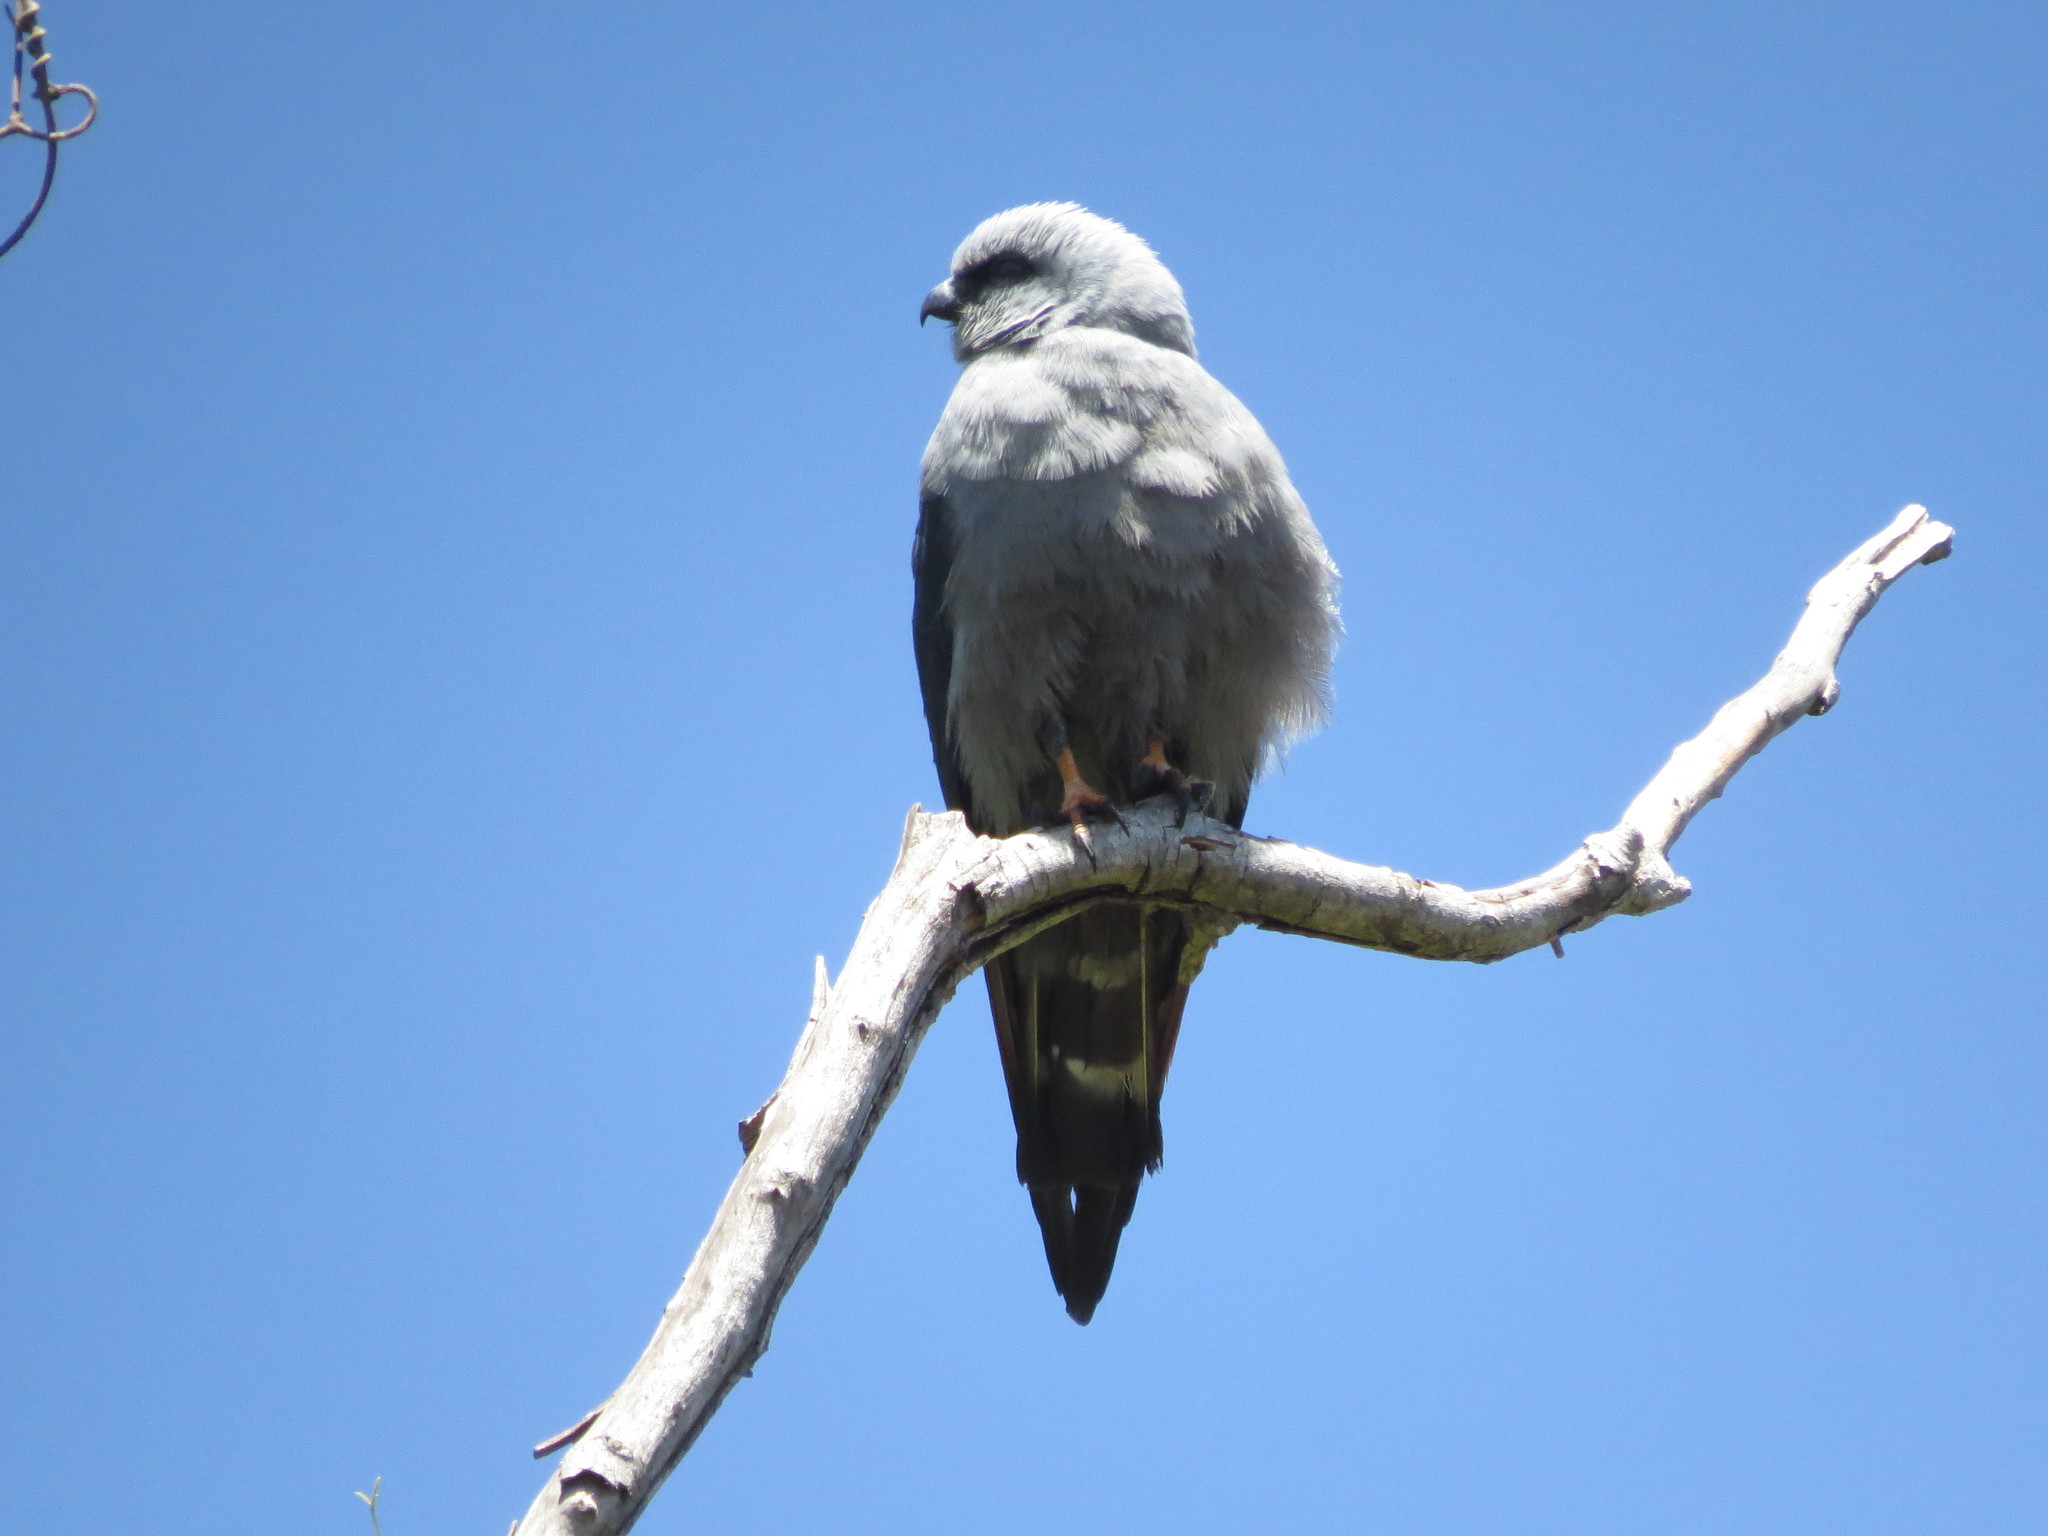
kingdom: Animalia
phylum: Chordata
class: Aves
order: Accipitriformes
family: Accipitridae
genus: Ictinia
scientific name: Ictinia plumbea
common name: Plumbeous kite
